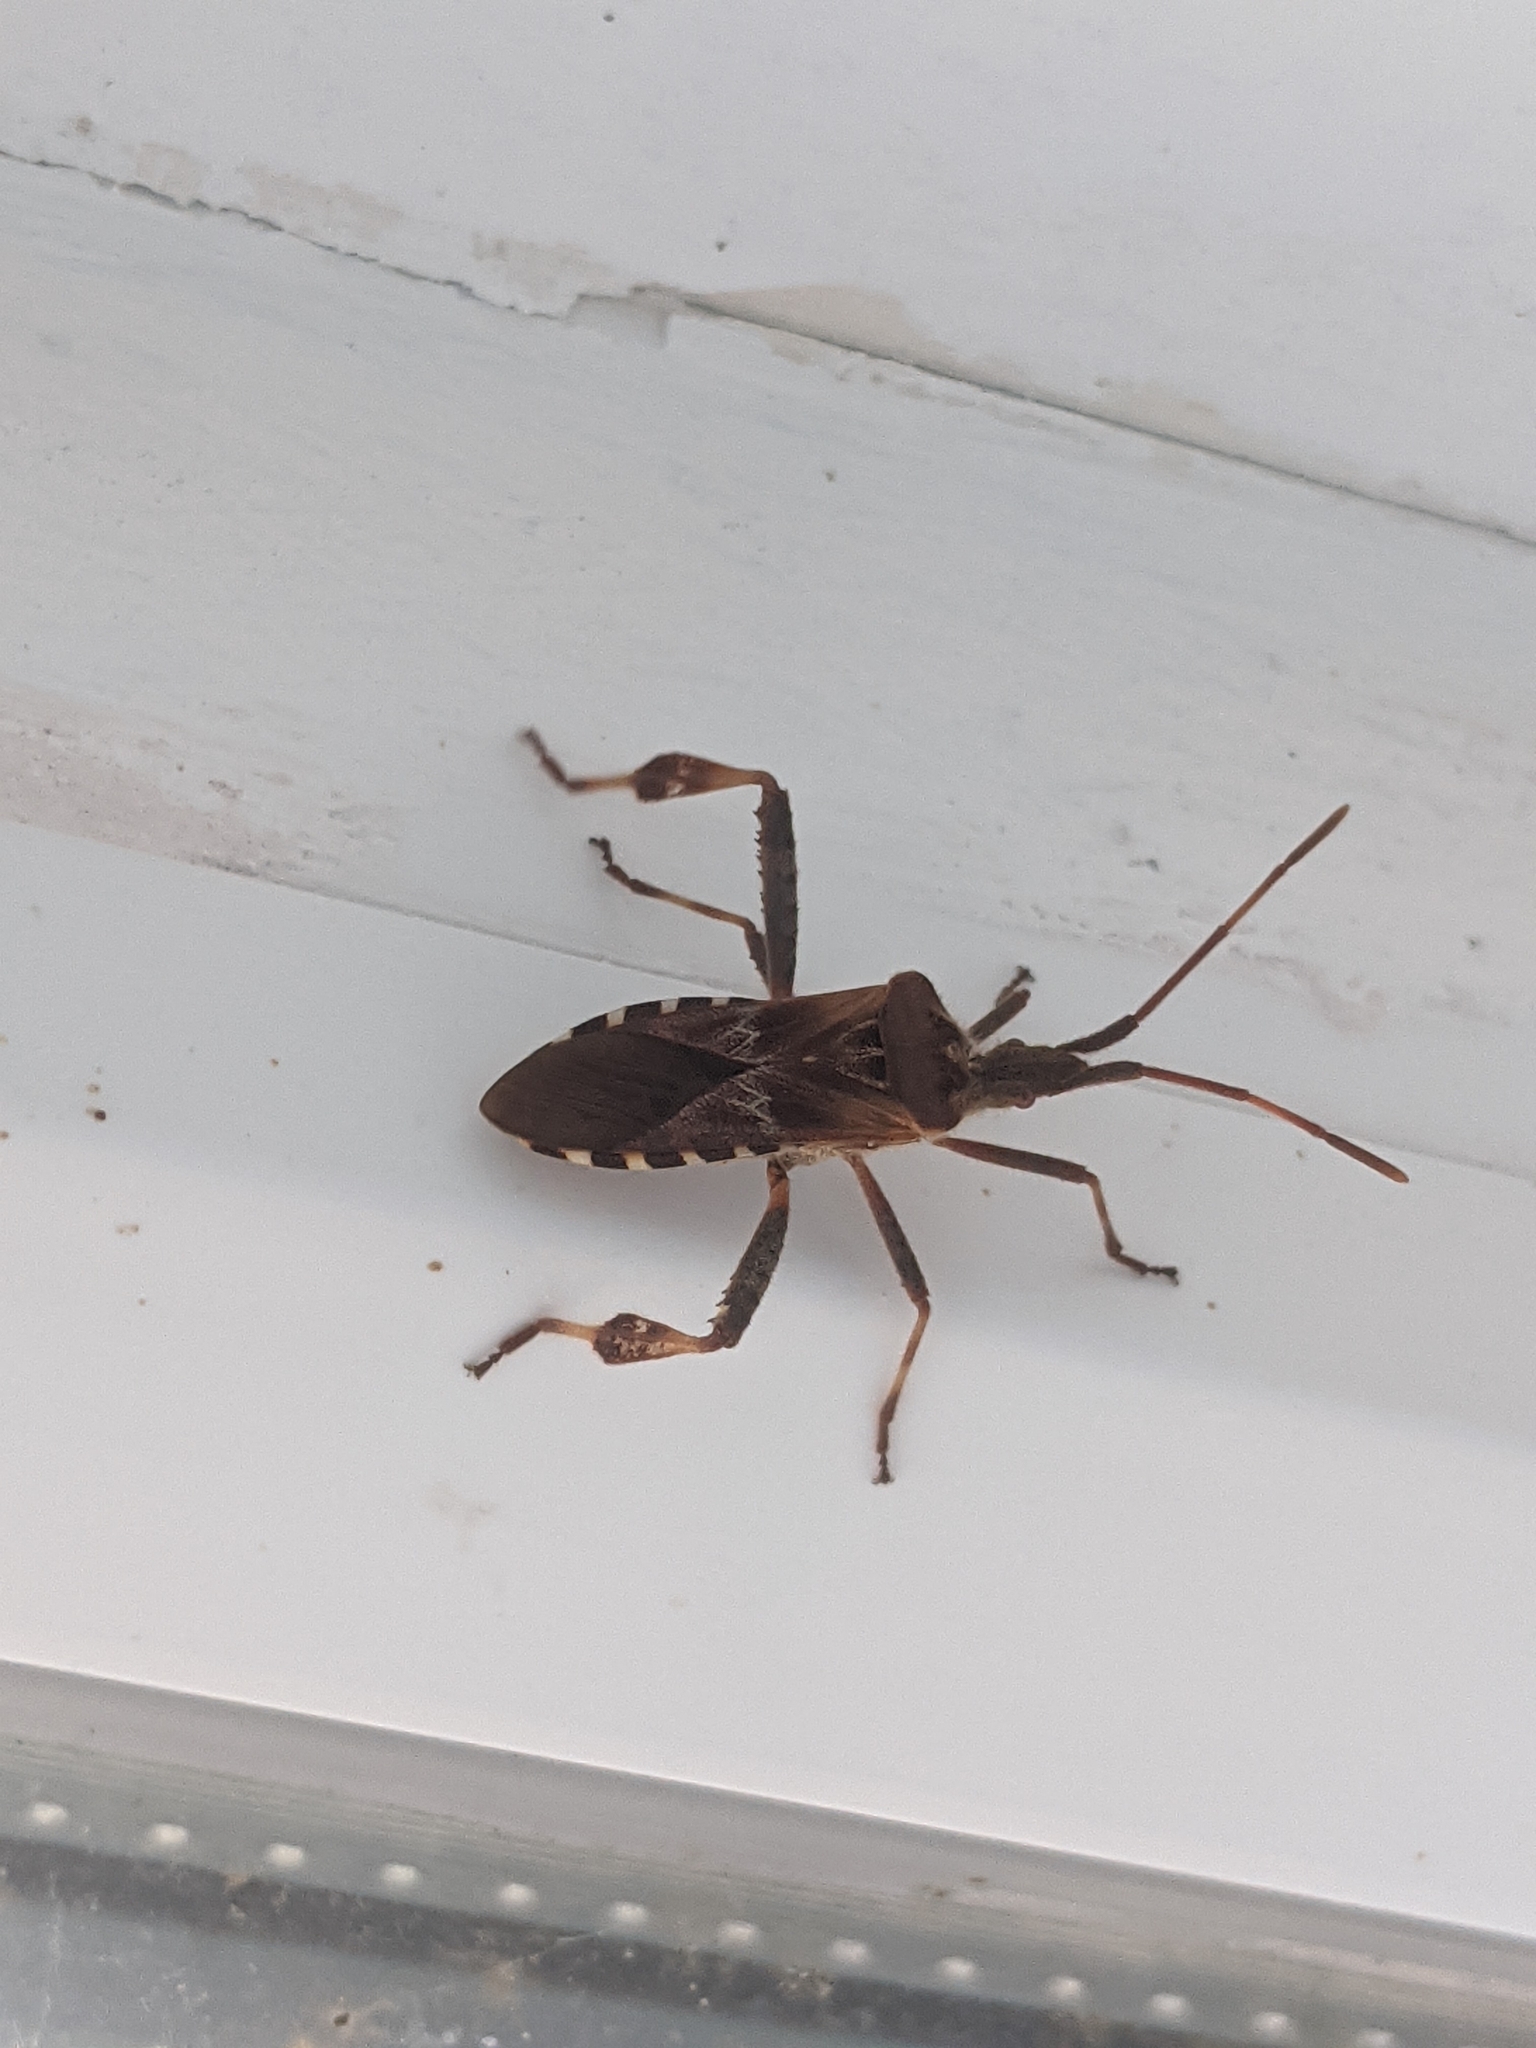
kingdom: Animalia
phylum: Arthropoda
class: Insecta
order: Hemiptera
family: Coreidae
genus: Leptoglossus
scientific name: Leptoglossus occidentalis
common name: Western conifer-seed bug
